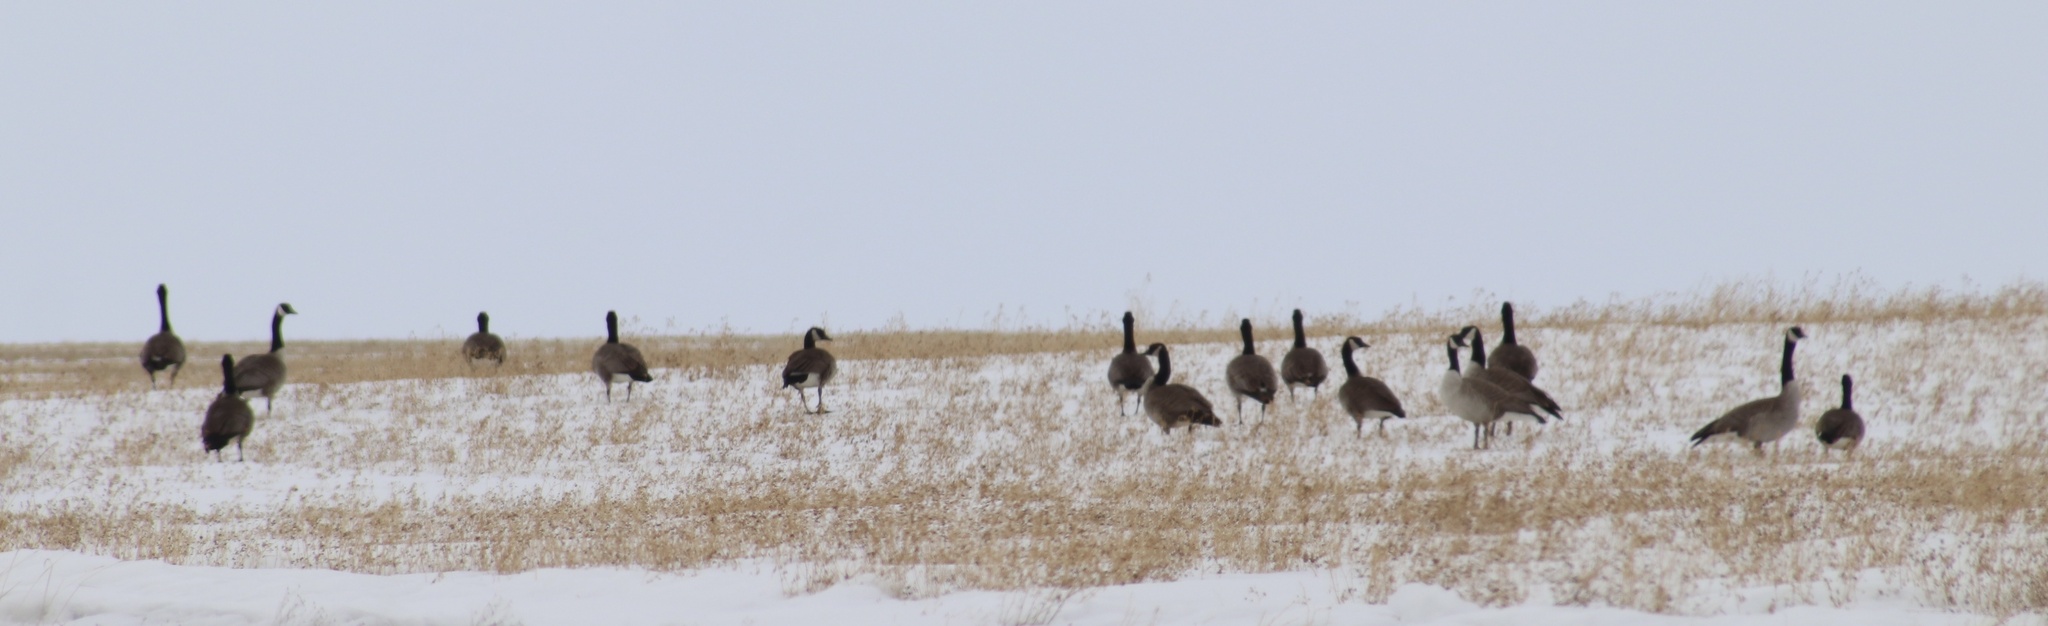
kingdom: Animalia
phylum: Chordata
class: Aves
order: Anseriformes
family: Anatidae
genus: Branta
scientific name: Branta canadensis
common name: Canada goose
